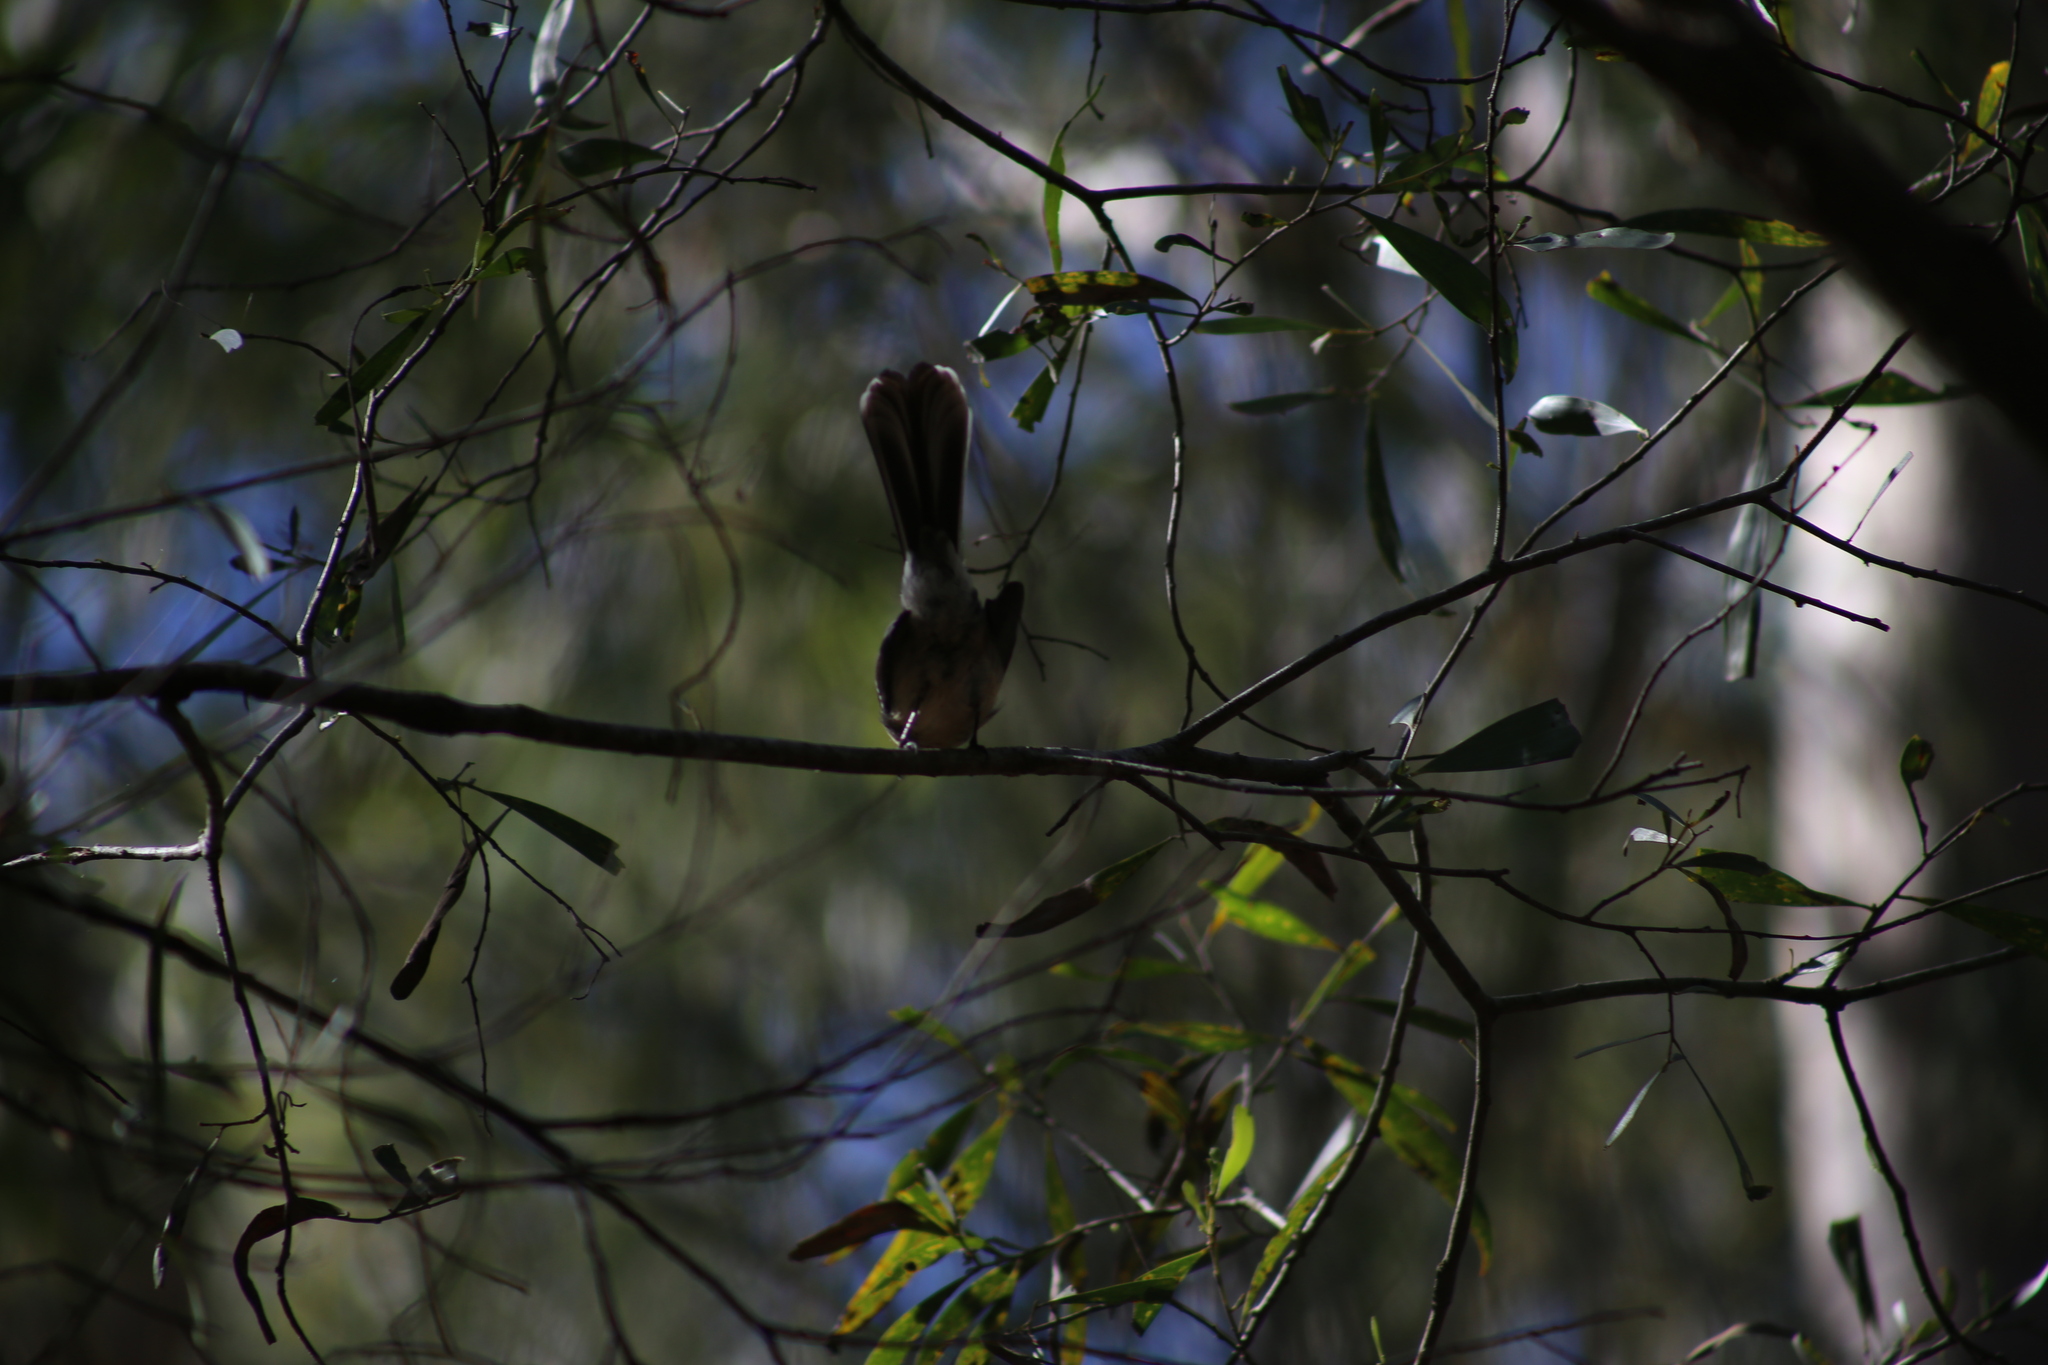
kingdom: Animalia
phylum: Chordata
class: Aves
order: Passeriformes
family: Rhipiduridae
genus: Rhipidura
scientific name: Rhipidura albiscapa
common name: Grey fantail
